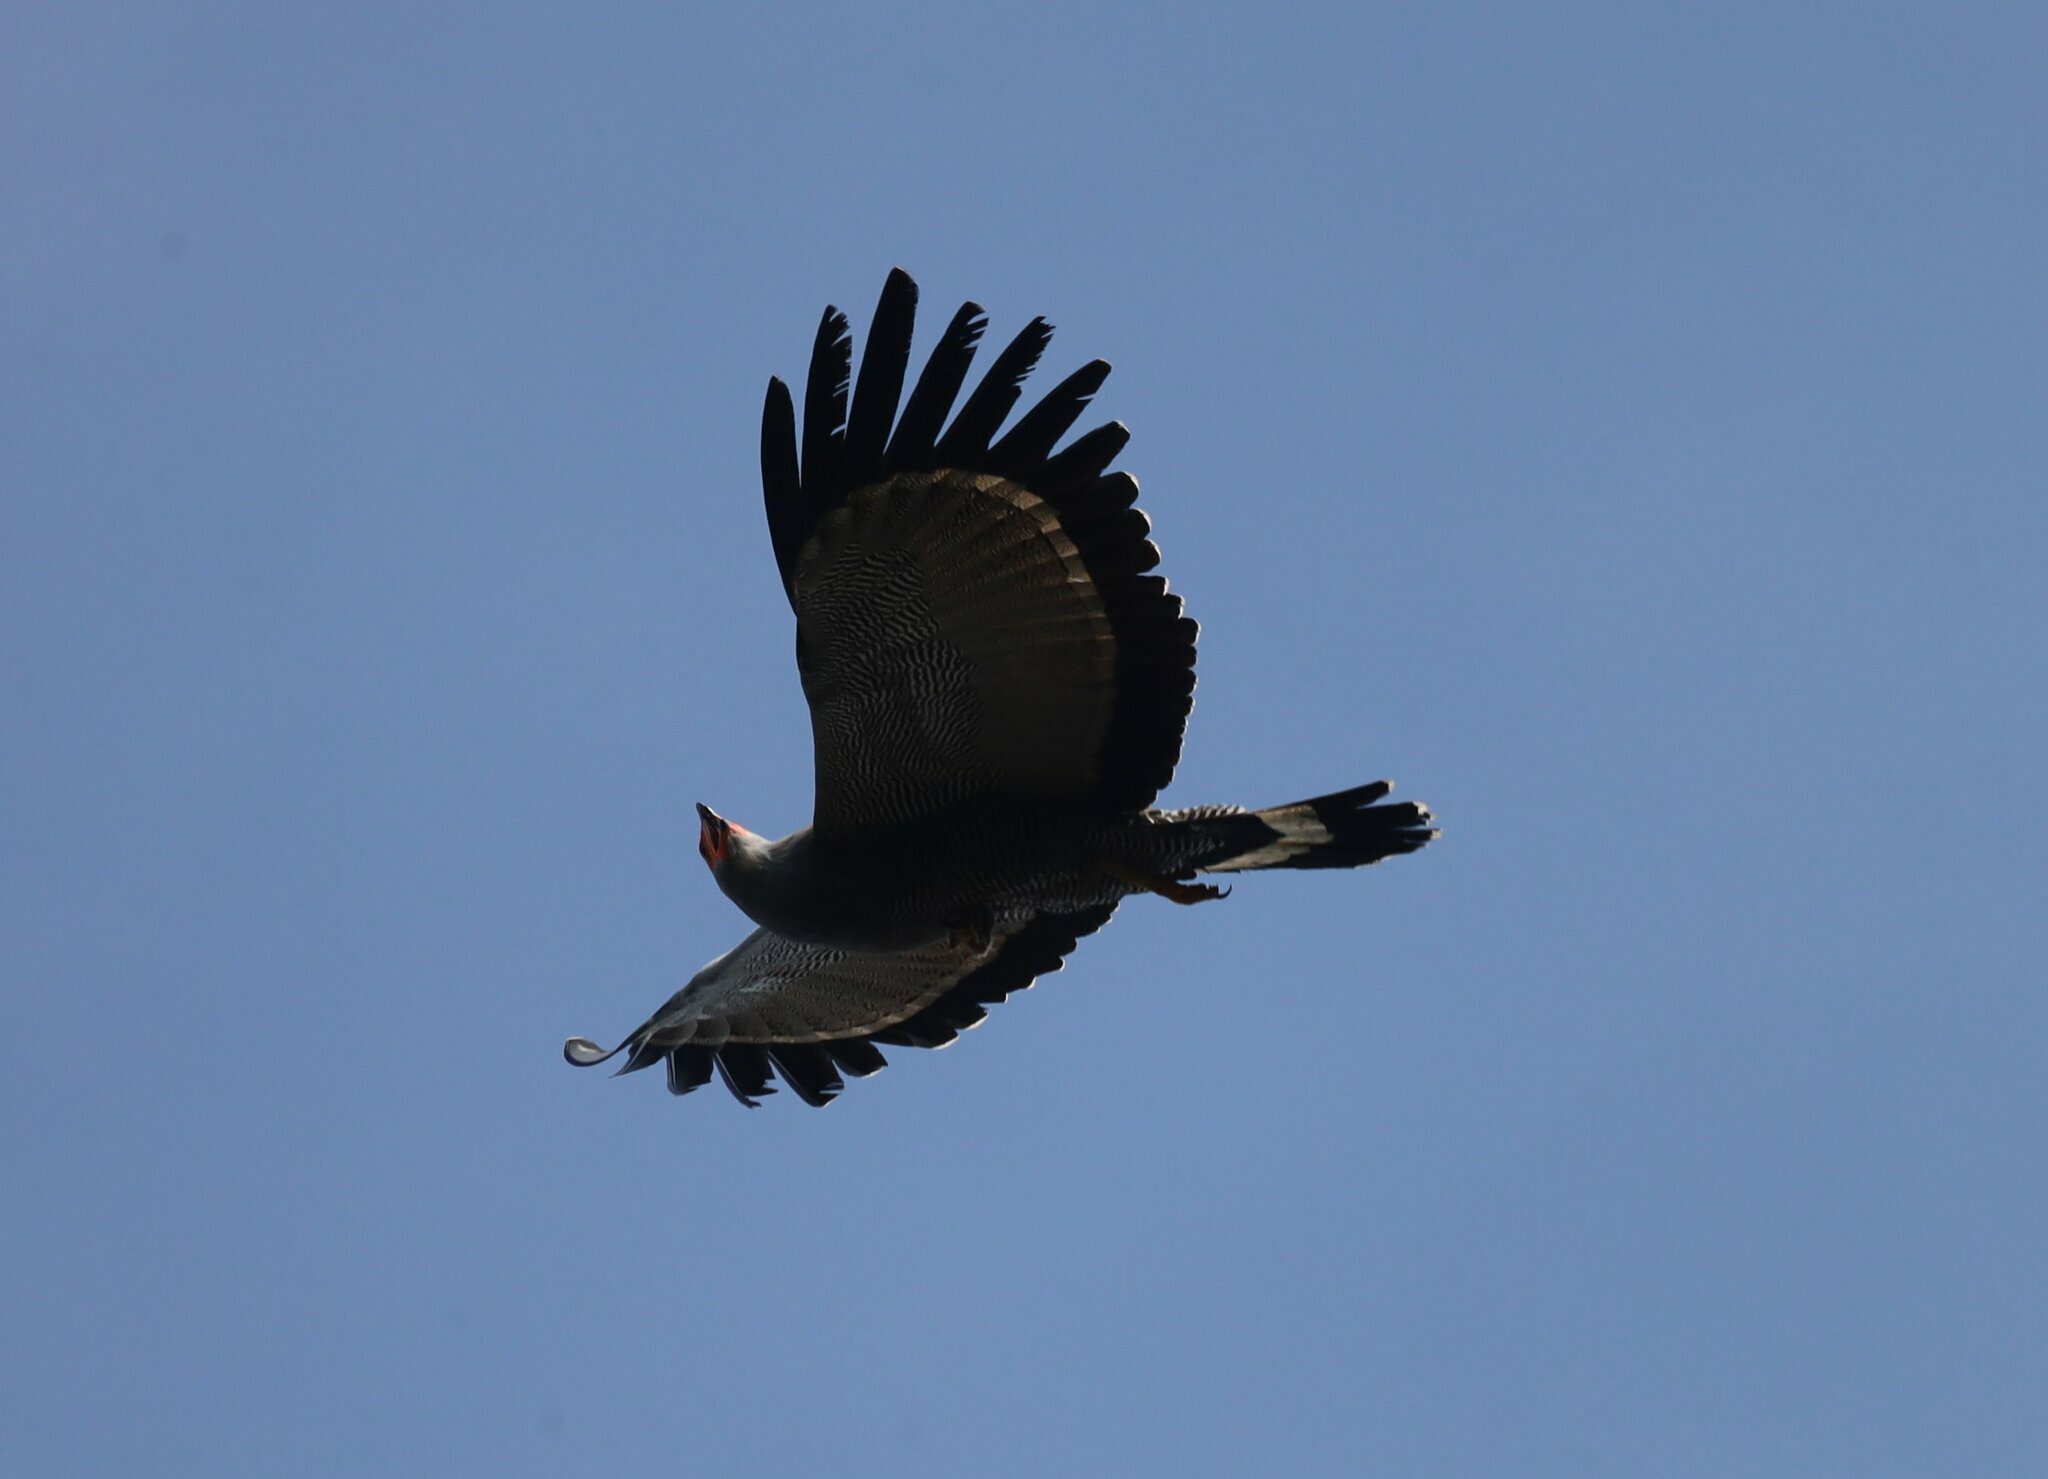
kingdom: Animalia
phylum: Chordata
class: Aves
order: Accipitriformes
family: Accipitridae
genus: Polyboroides
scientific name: Polyboroides typus
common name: African harrier-hawk
